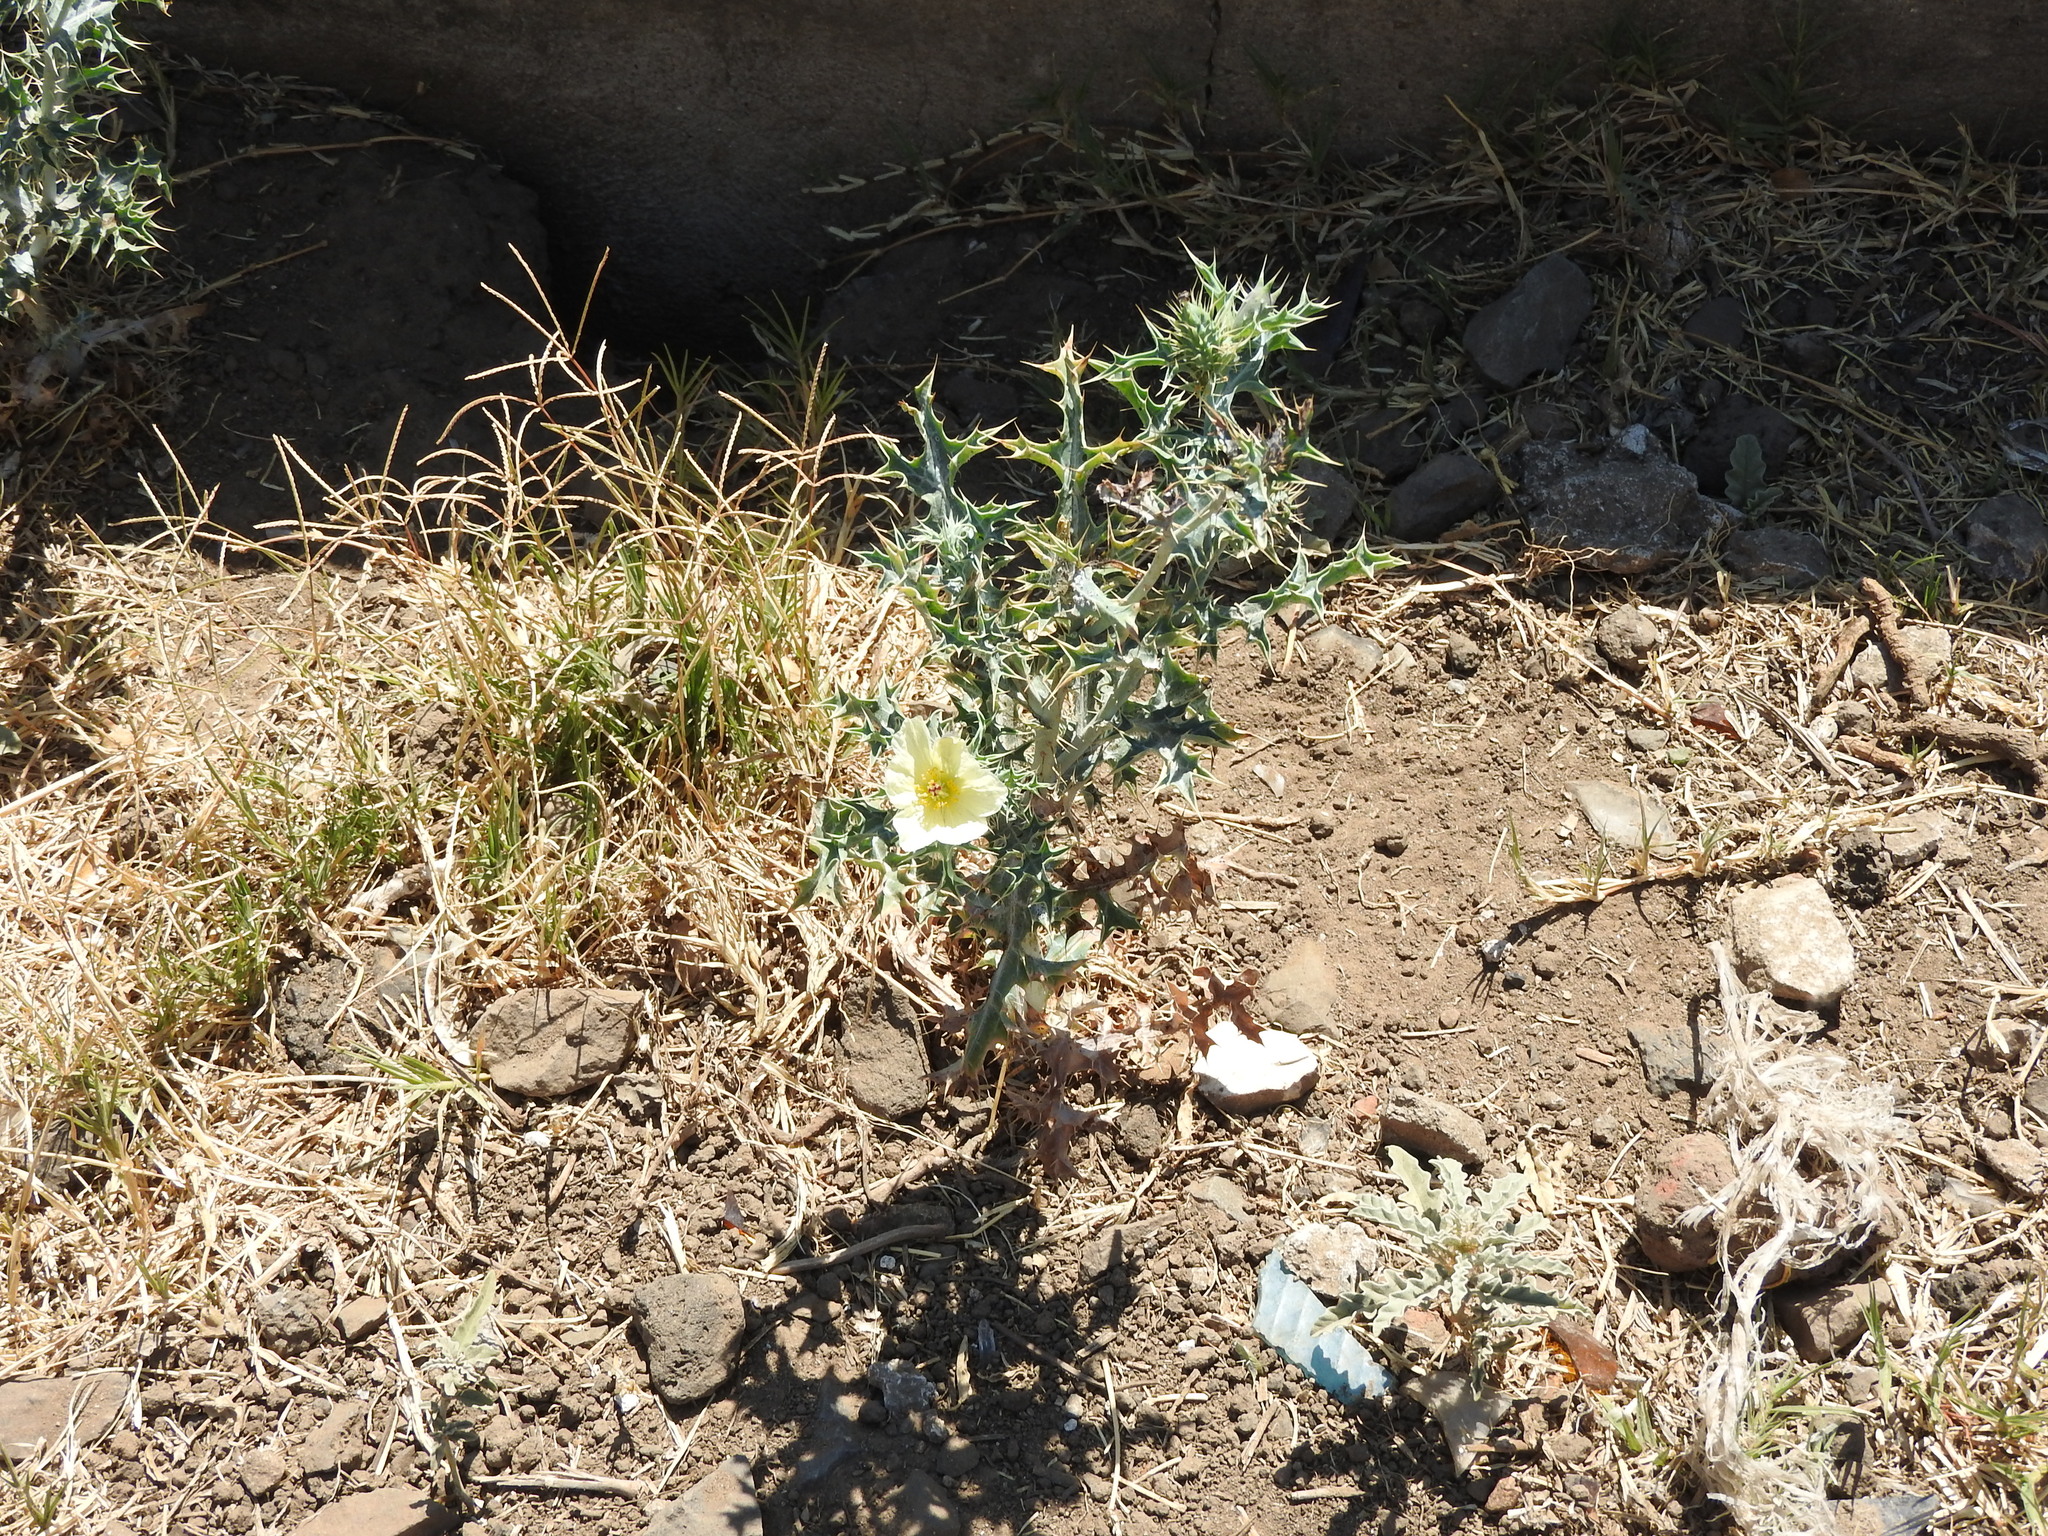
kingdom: Plantae
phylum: Tracheophyta
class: Magnoliopsida
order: Ranunculales
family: Papaveraceae
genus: Argemone
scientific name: Argemone ochroleuca
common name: White-flower mexican-poppy
